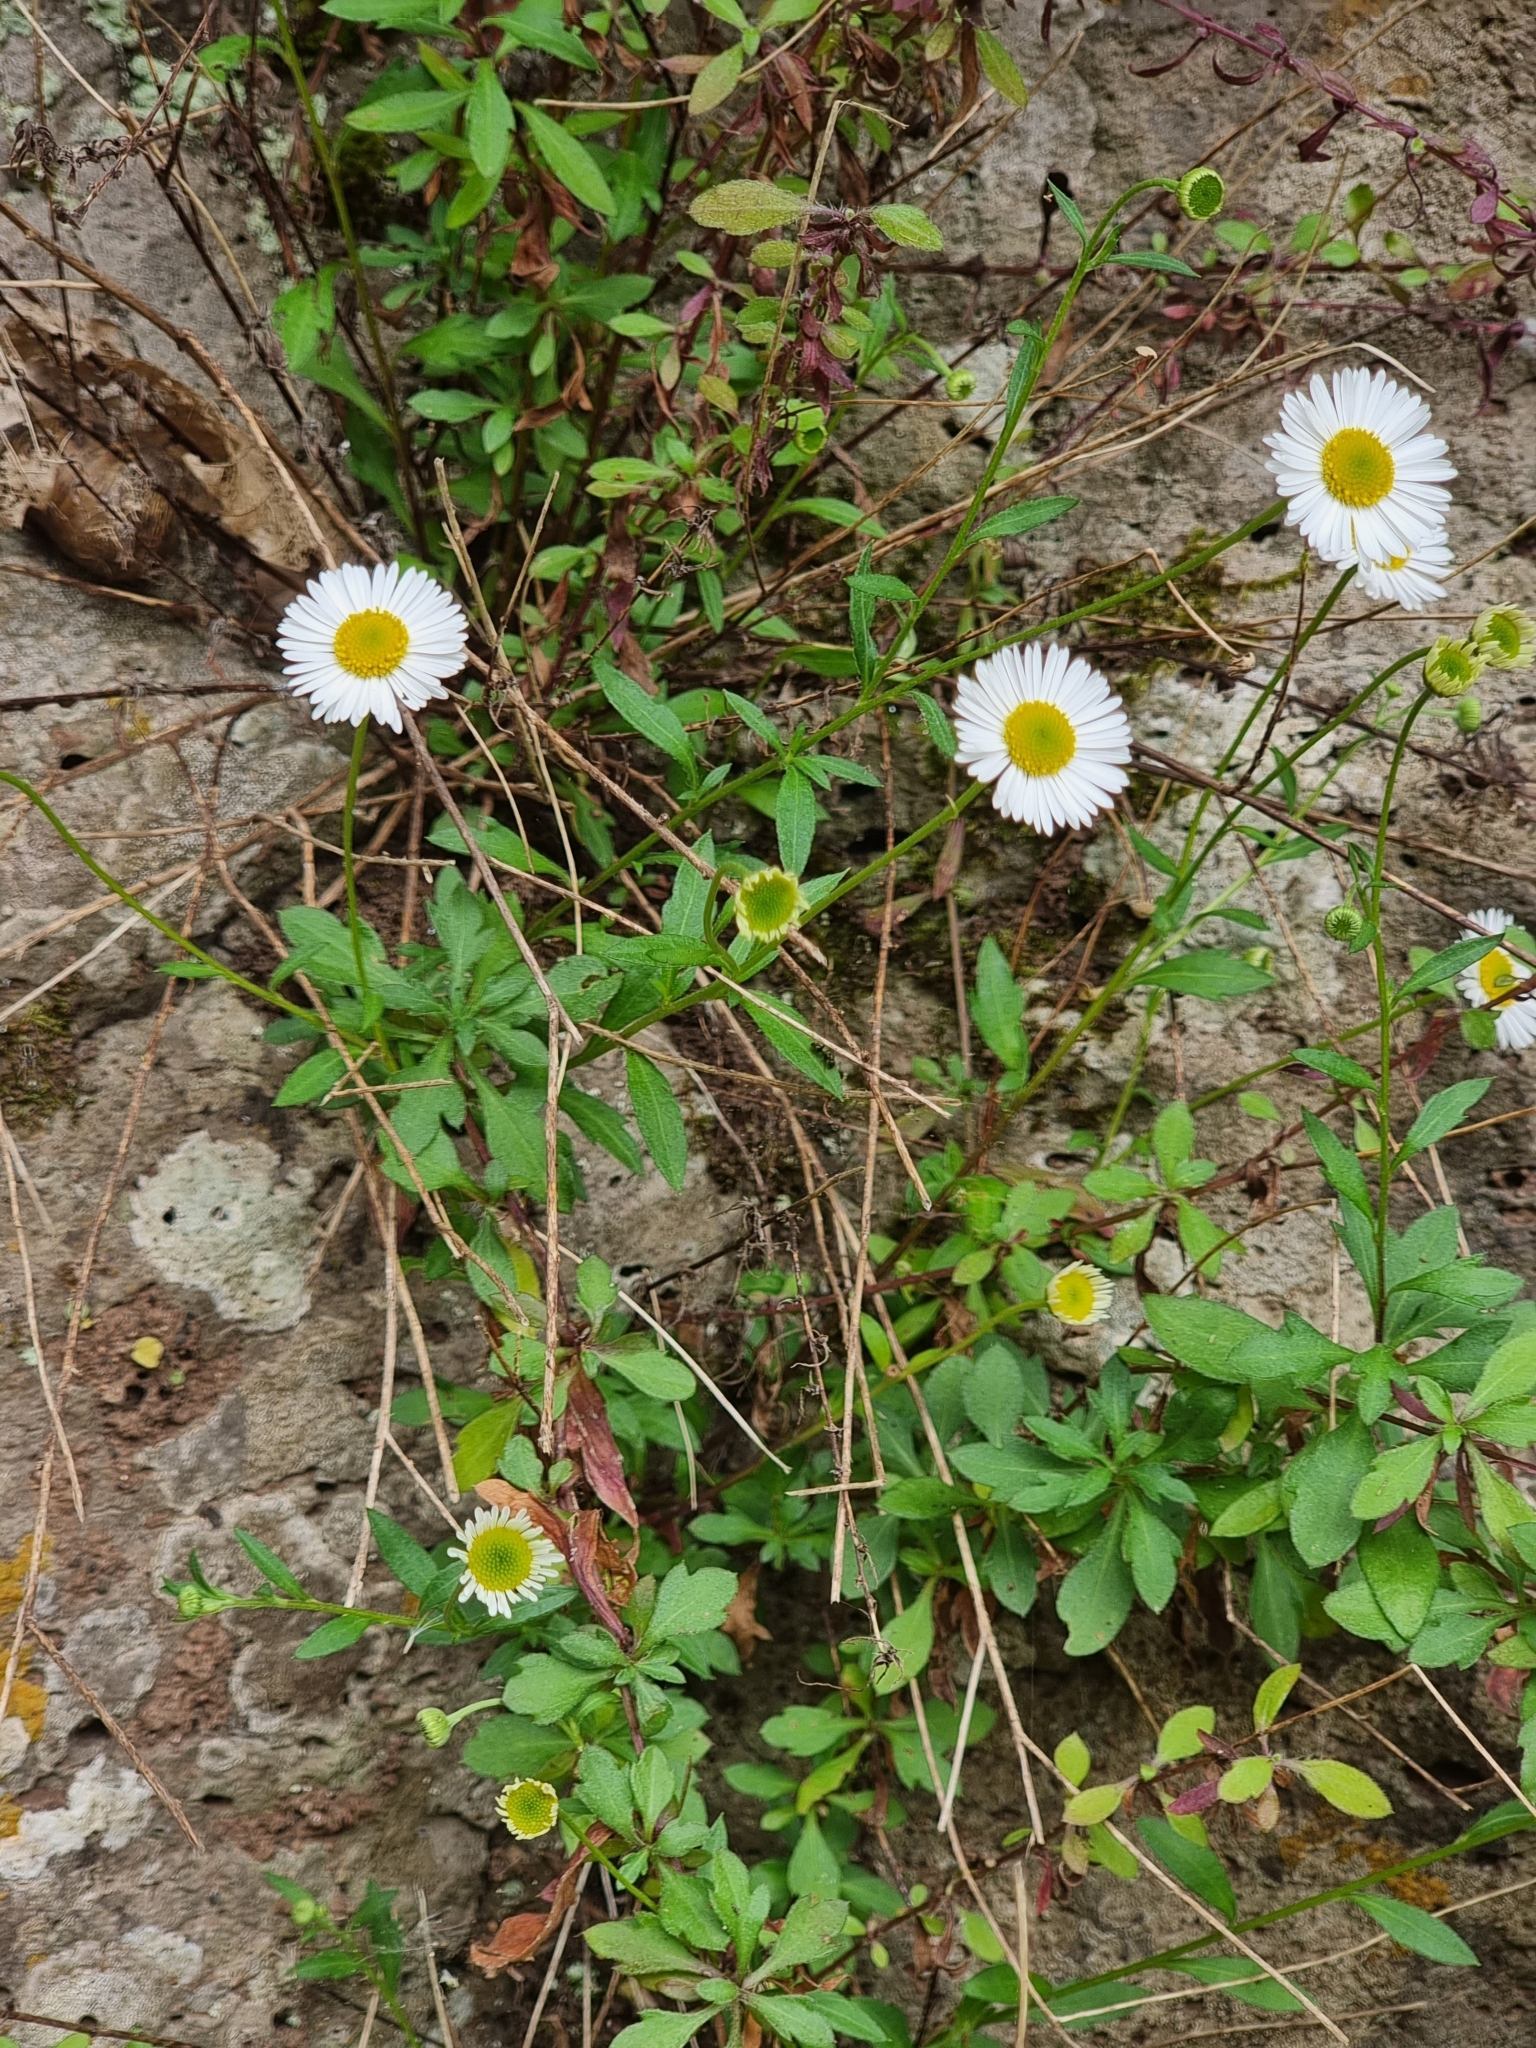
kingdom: Plantae
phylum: Tracheophyta
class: Magnoliopsida
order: Asterales
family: Asteraceae
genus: Erigeron
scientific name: Erigeron karvinskianus
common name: Mexican fleabane
